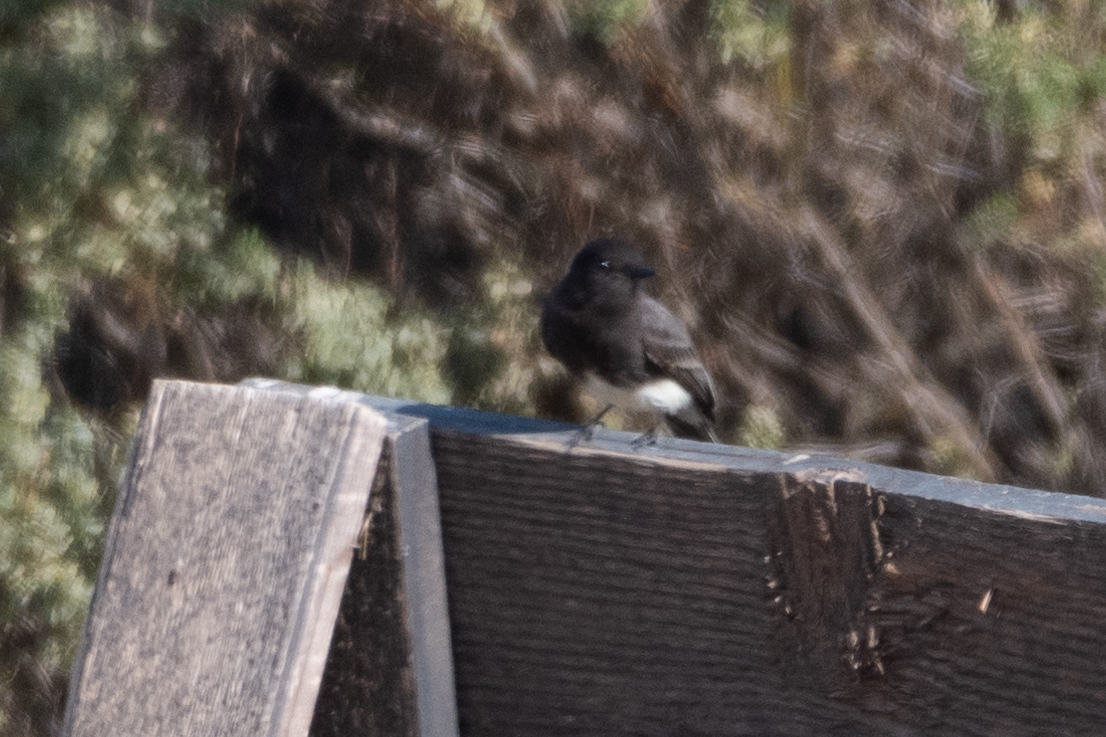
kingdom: Animalia
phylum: Chordata
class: Aves
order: Passeriformes
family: Tyrannidae
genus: Sayornis
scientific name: Sayornis nigricans
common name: Black phoebe
